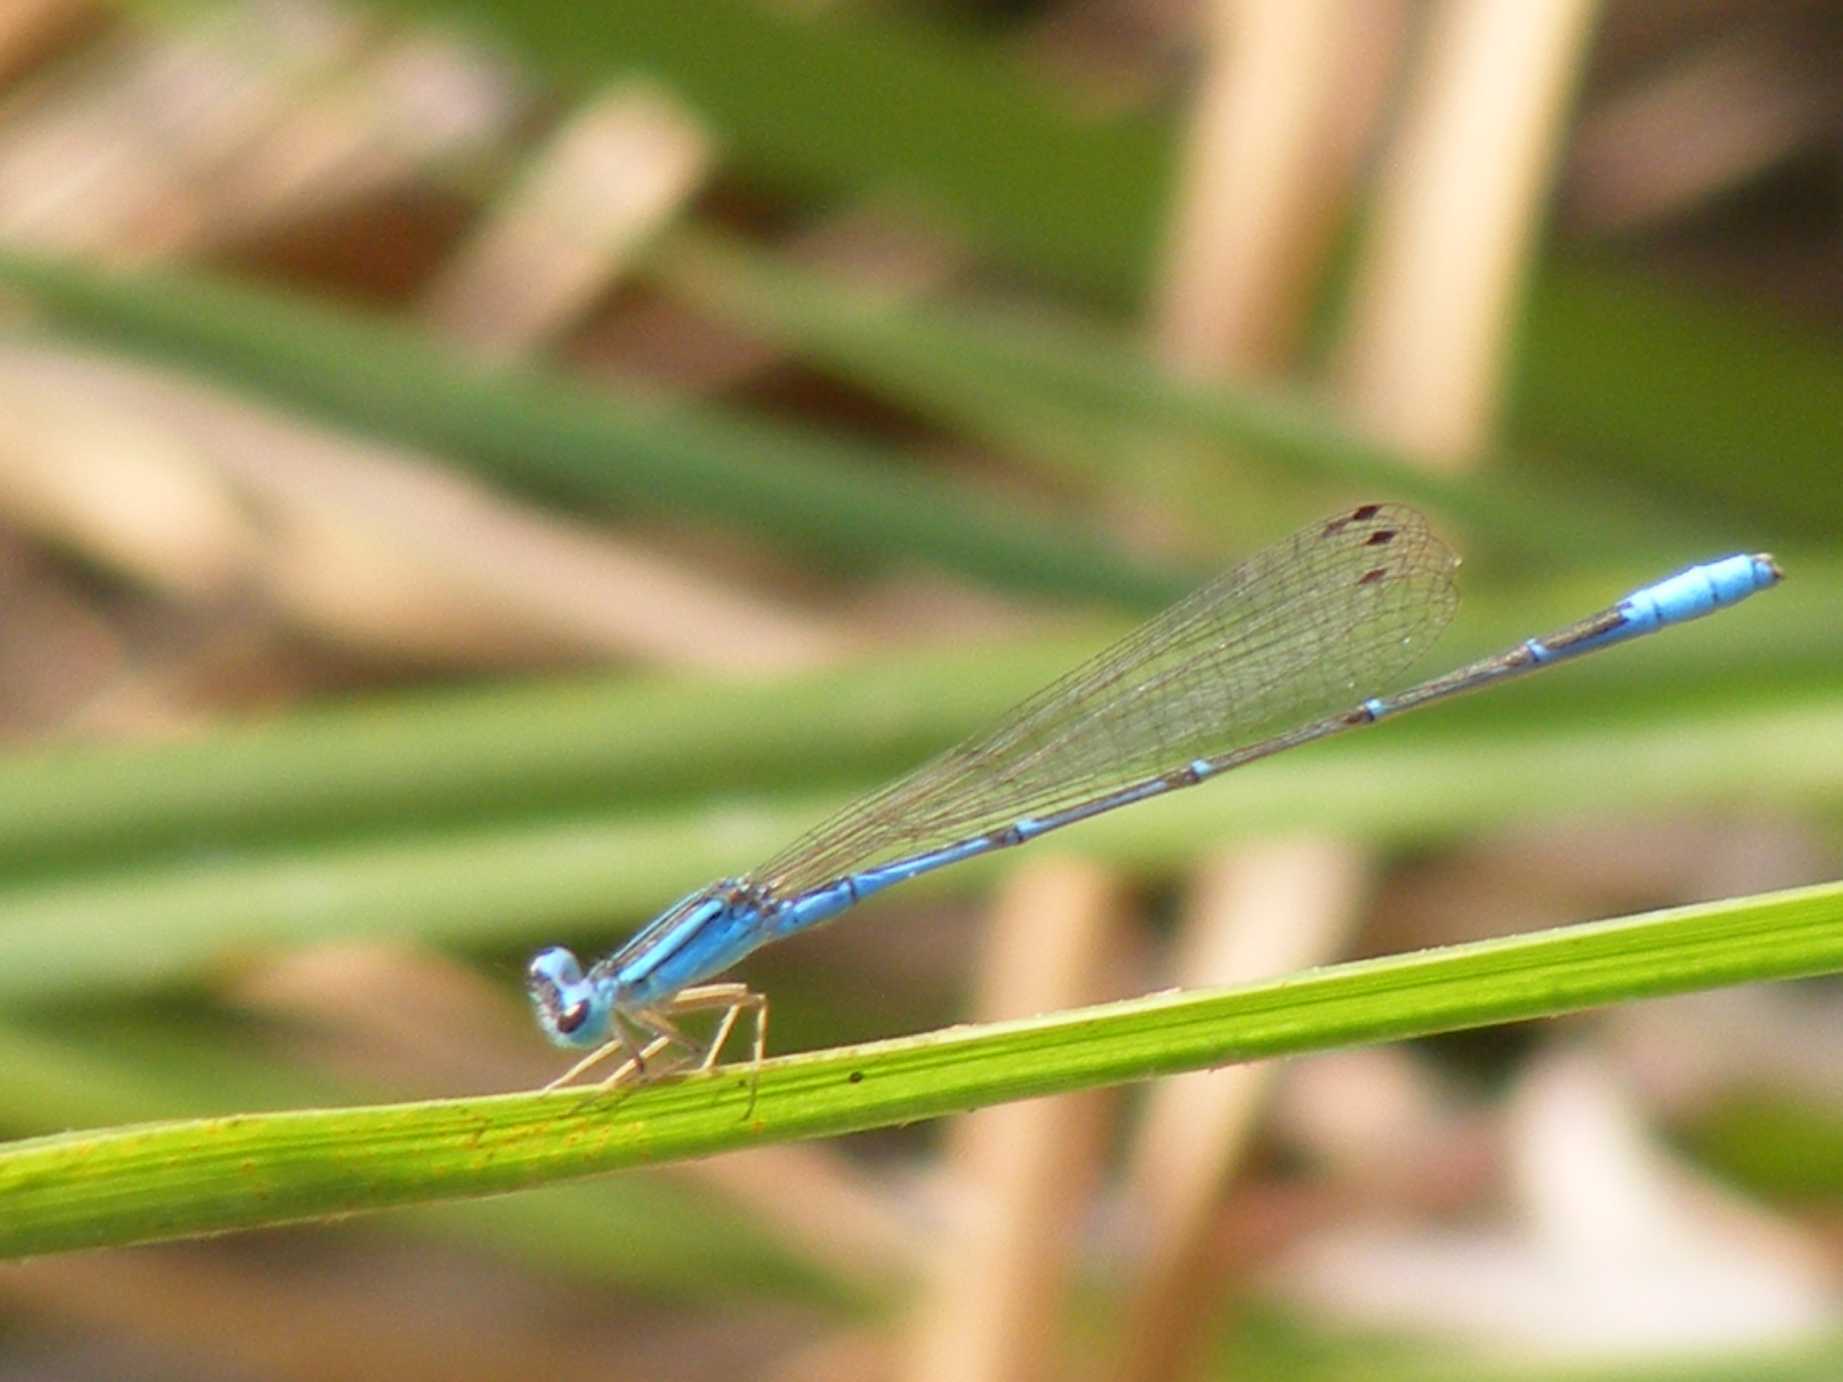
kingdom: Animalia
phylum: Arthropoda
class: Insecta
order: Odonata
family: Coenagrionidae
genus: Africallagma
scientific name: Africallagma fractum
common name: Slender bluet
